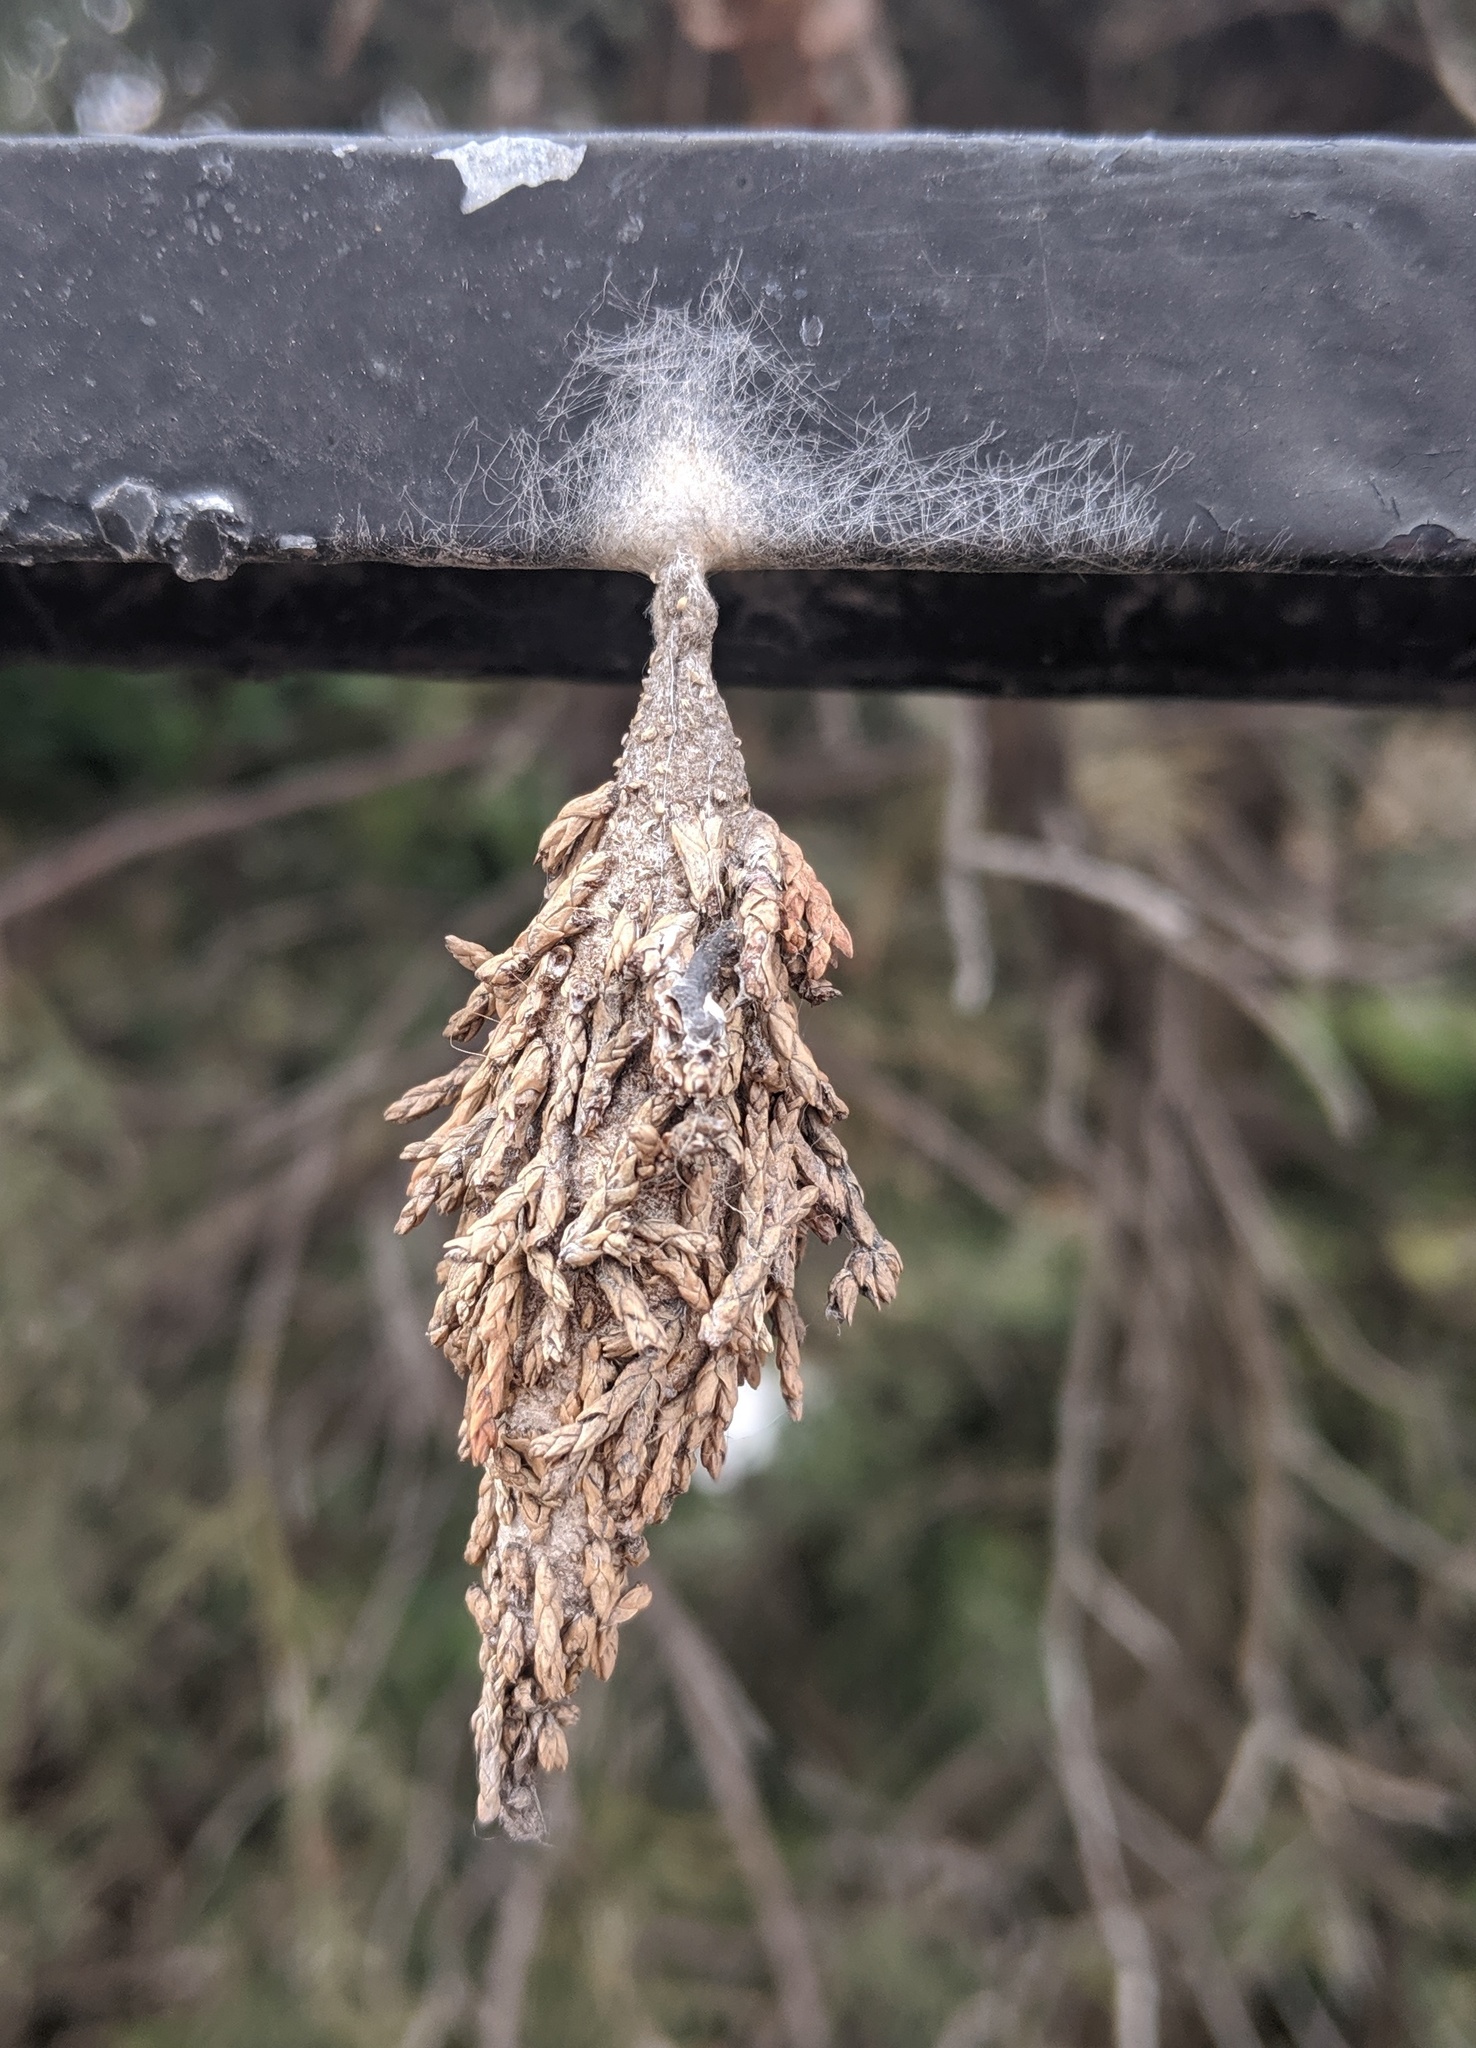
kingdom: Animalia
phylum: Arthropoda
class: Insecta
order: Lepidoptera
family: Psychidae
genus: Thyridopteryx
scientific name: Thyridopteryx ephemeraeformis
